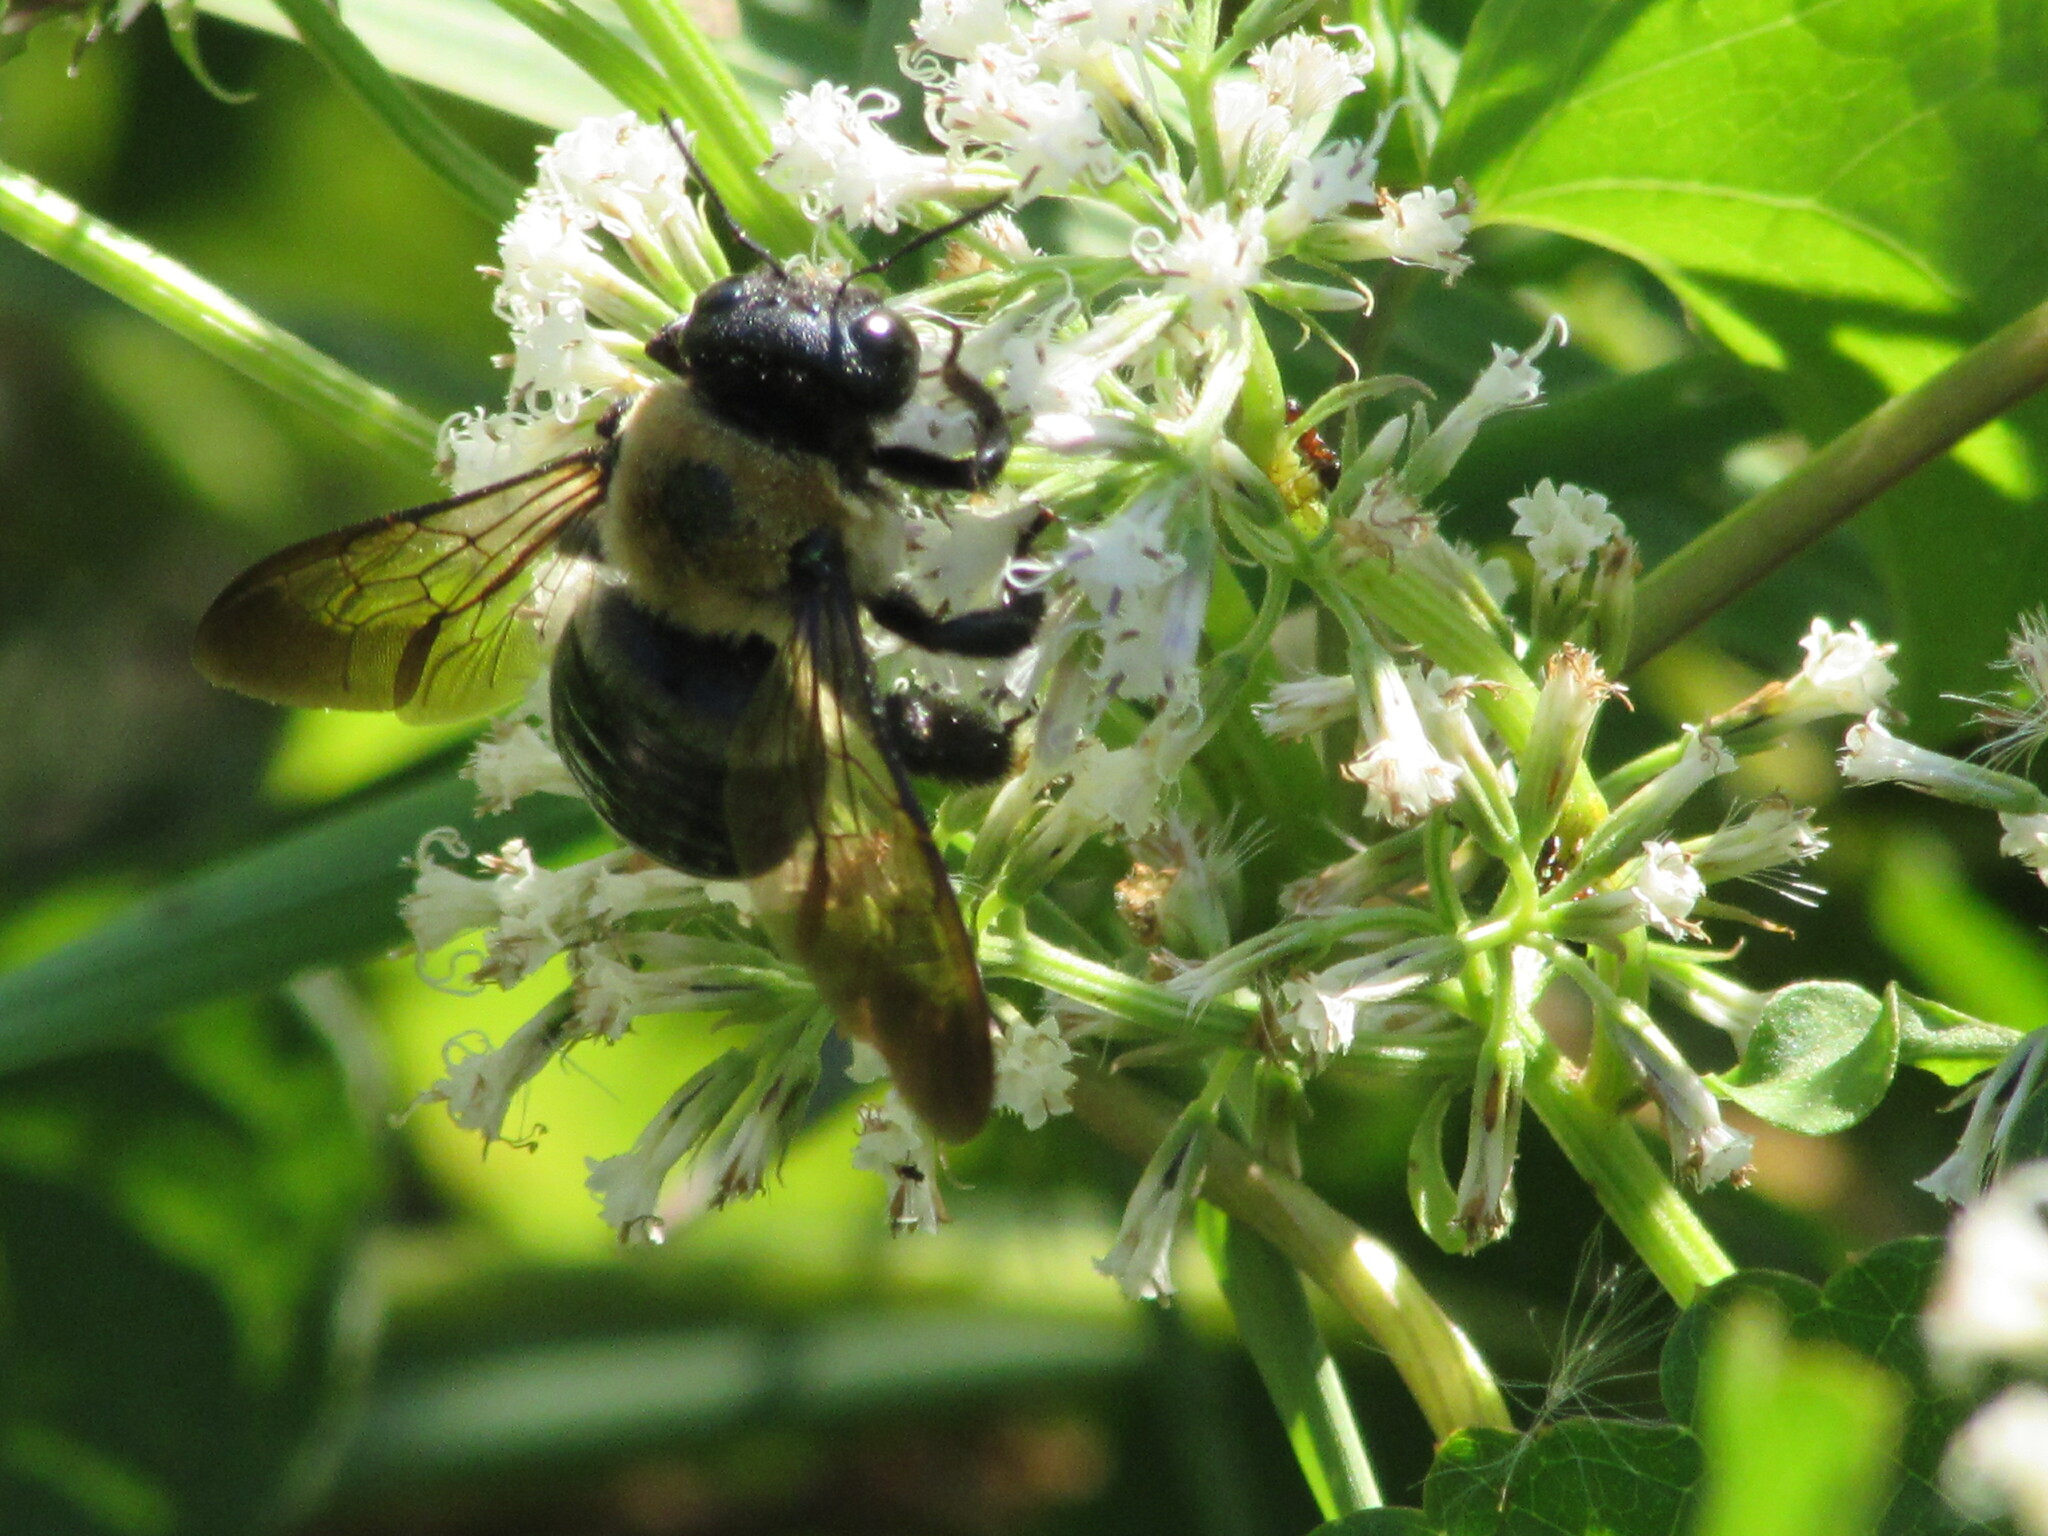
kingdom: Animalia
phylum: Arthropoda
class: Insecta
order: Hymenoptera
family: Apidae
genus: Xylocopa
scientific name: Xylocopa virginica
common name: Carpenter bee
